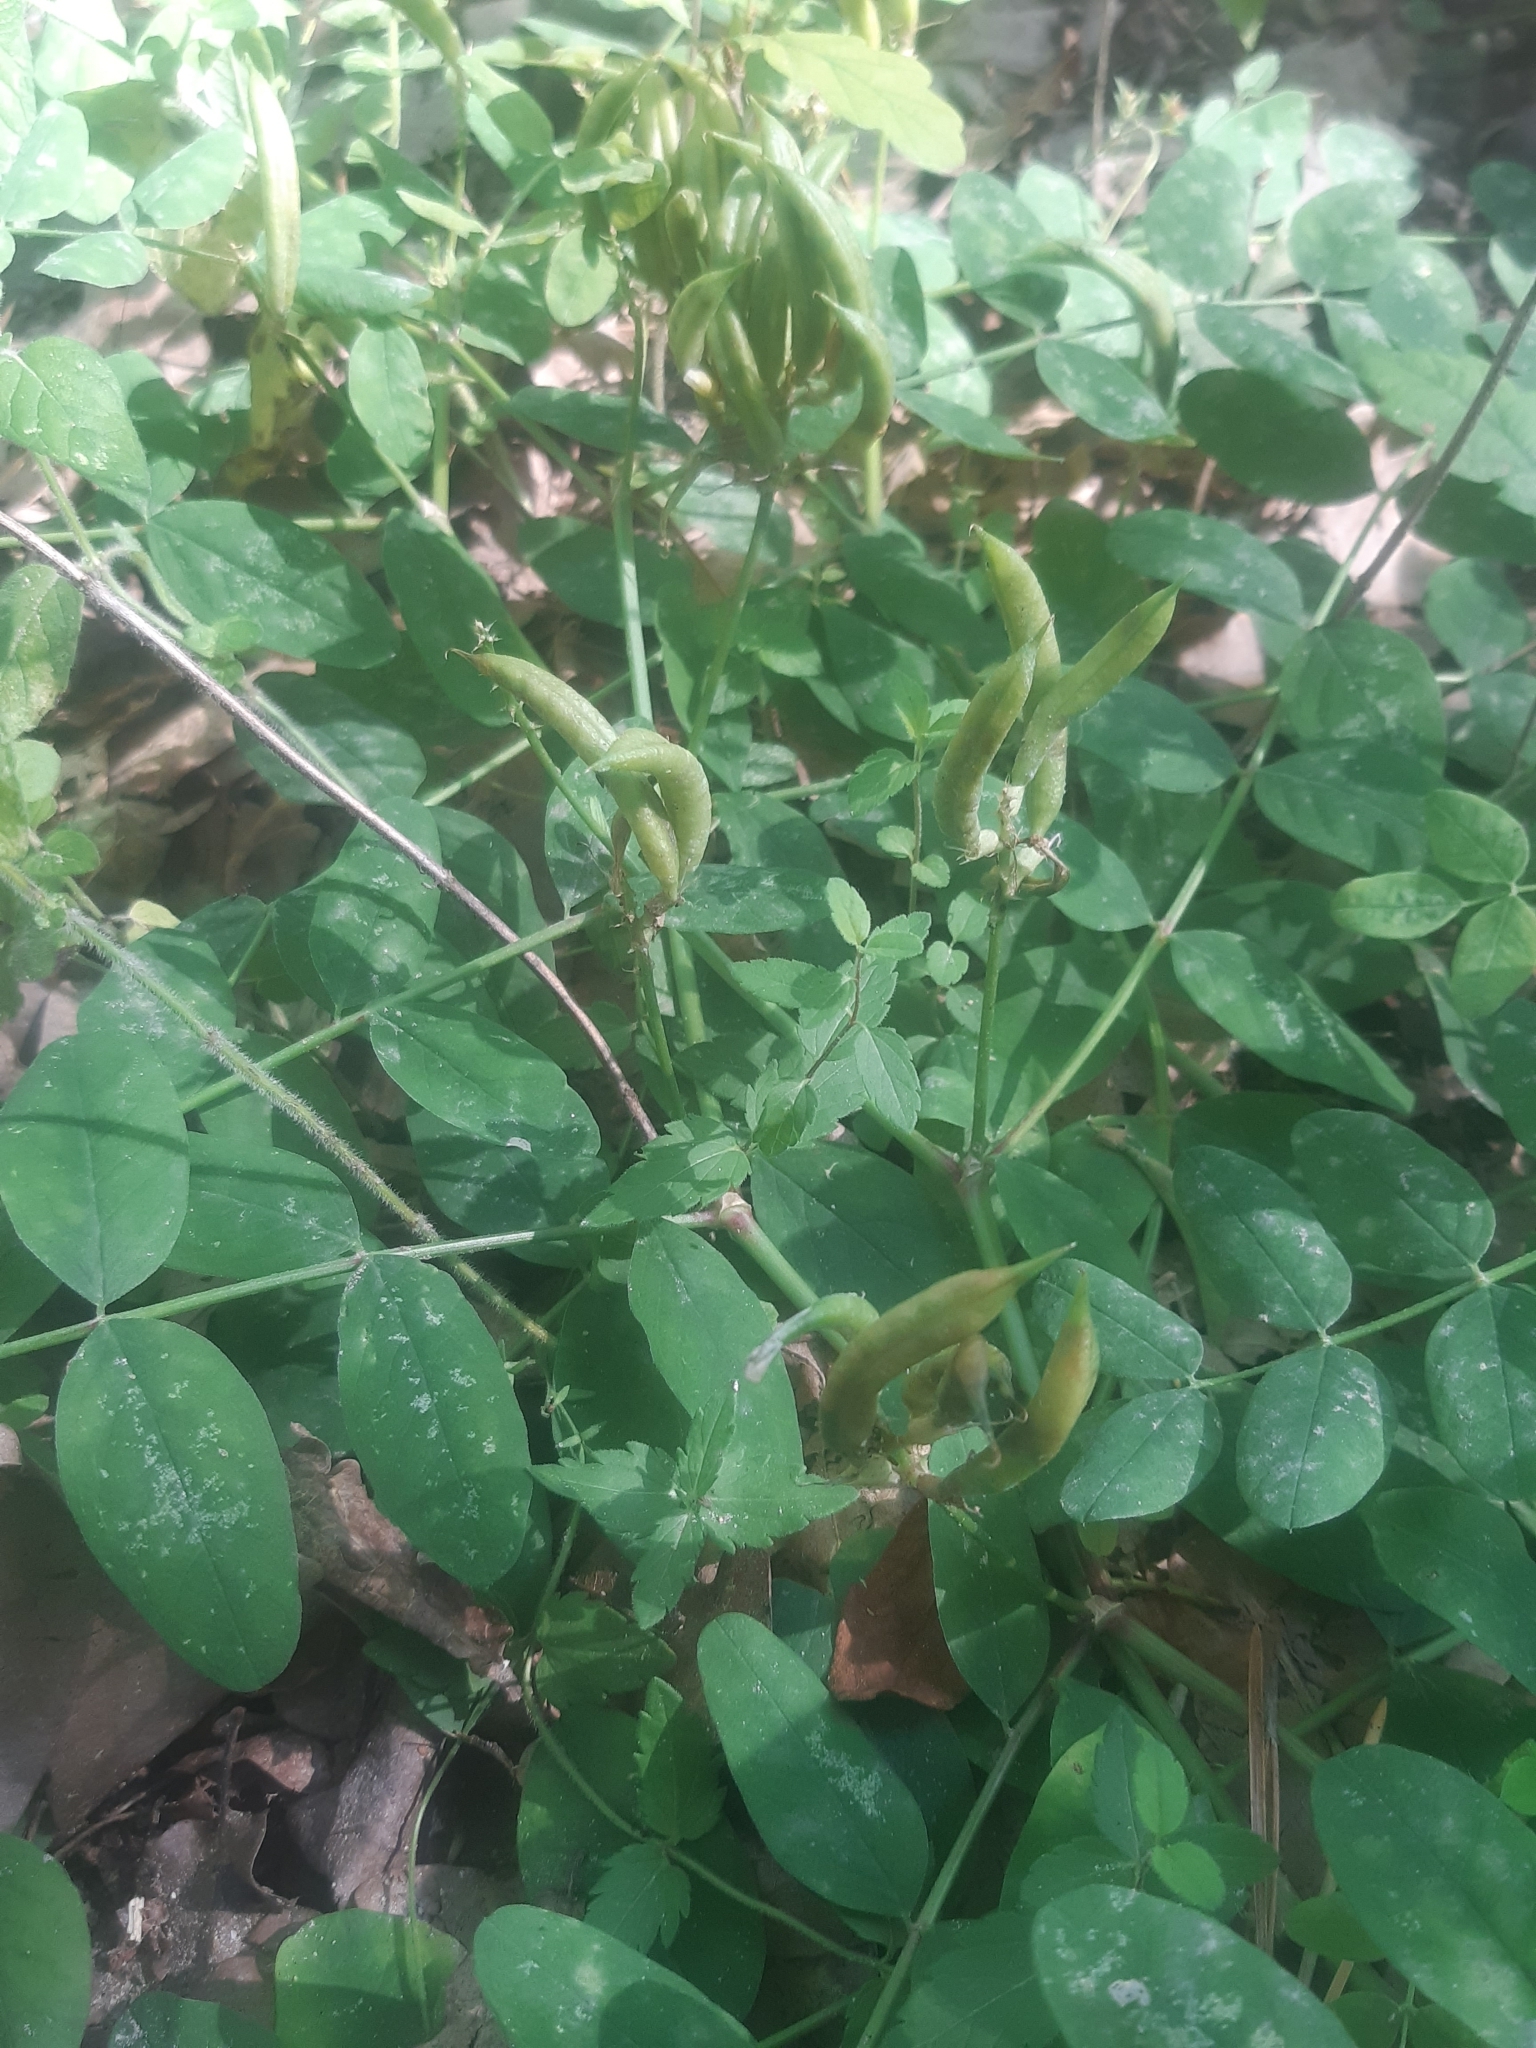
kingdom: Plantae
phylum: Tracheophyta
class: Magnoliopsida
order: Fabales
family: Fabaceae
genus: Astragalus
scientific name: Astragalus glycyphyllos
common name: Wild liquorice
